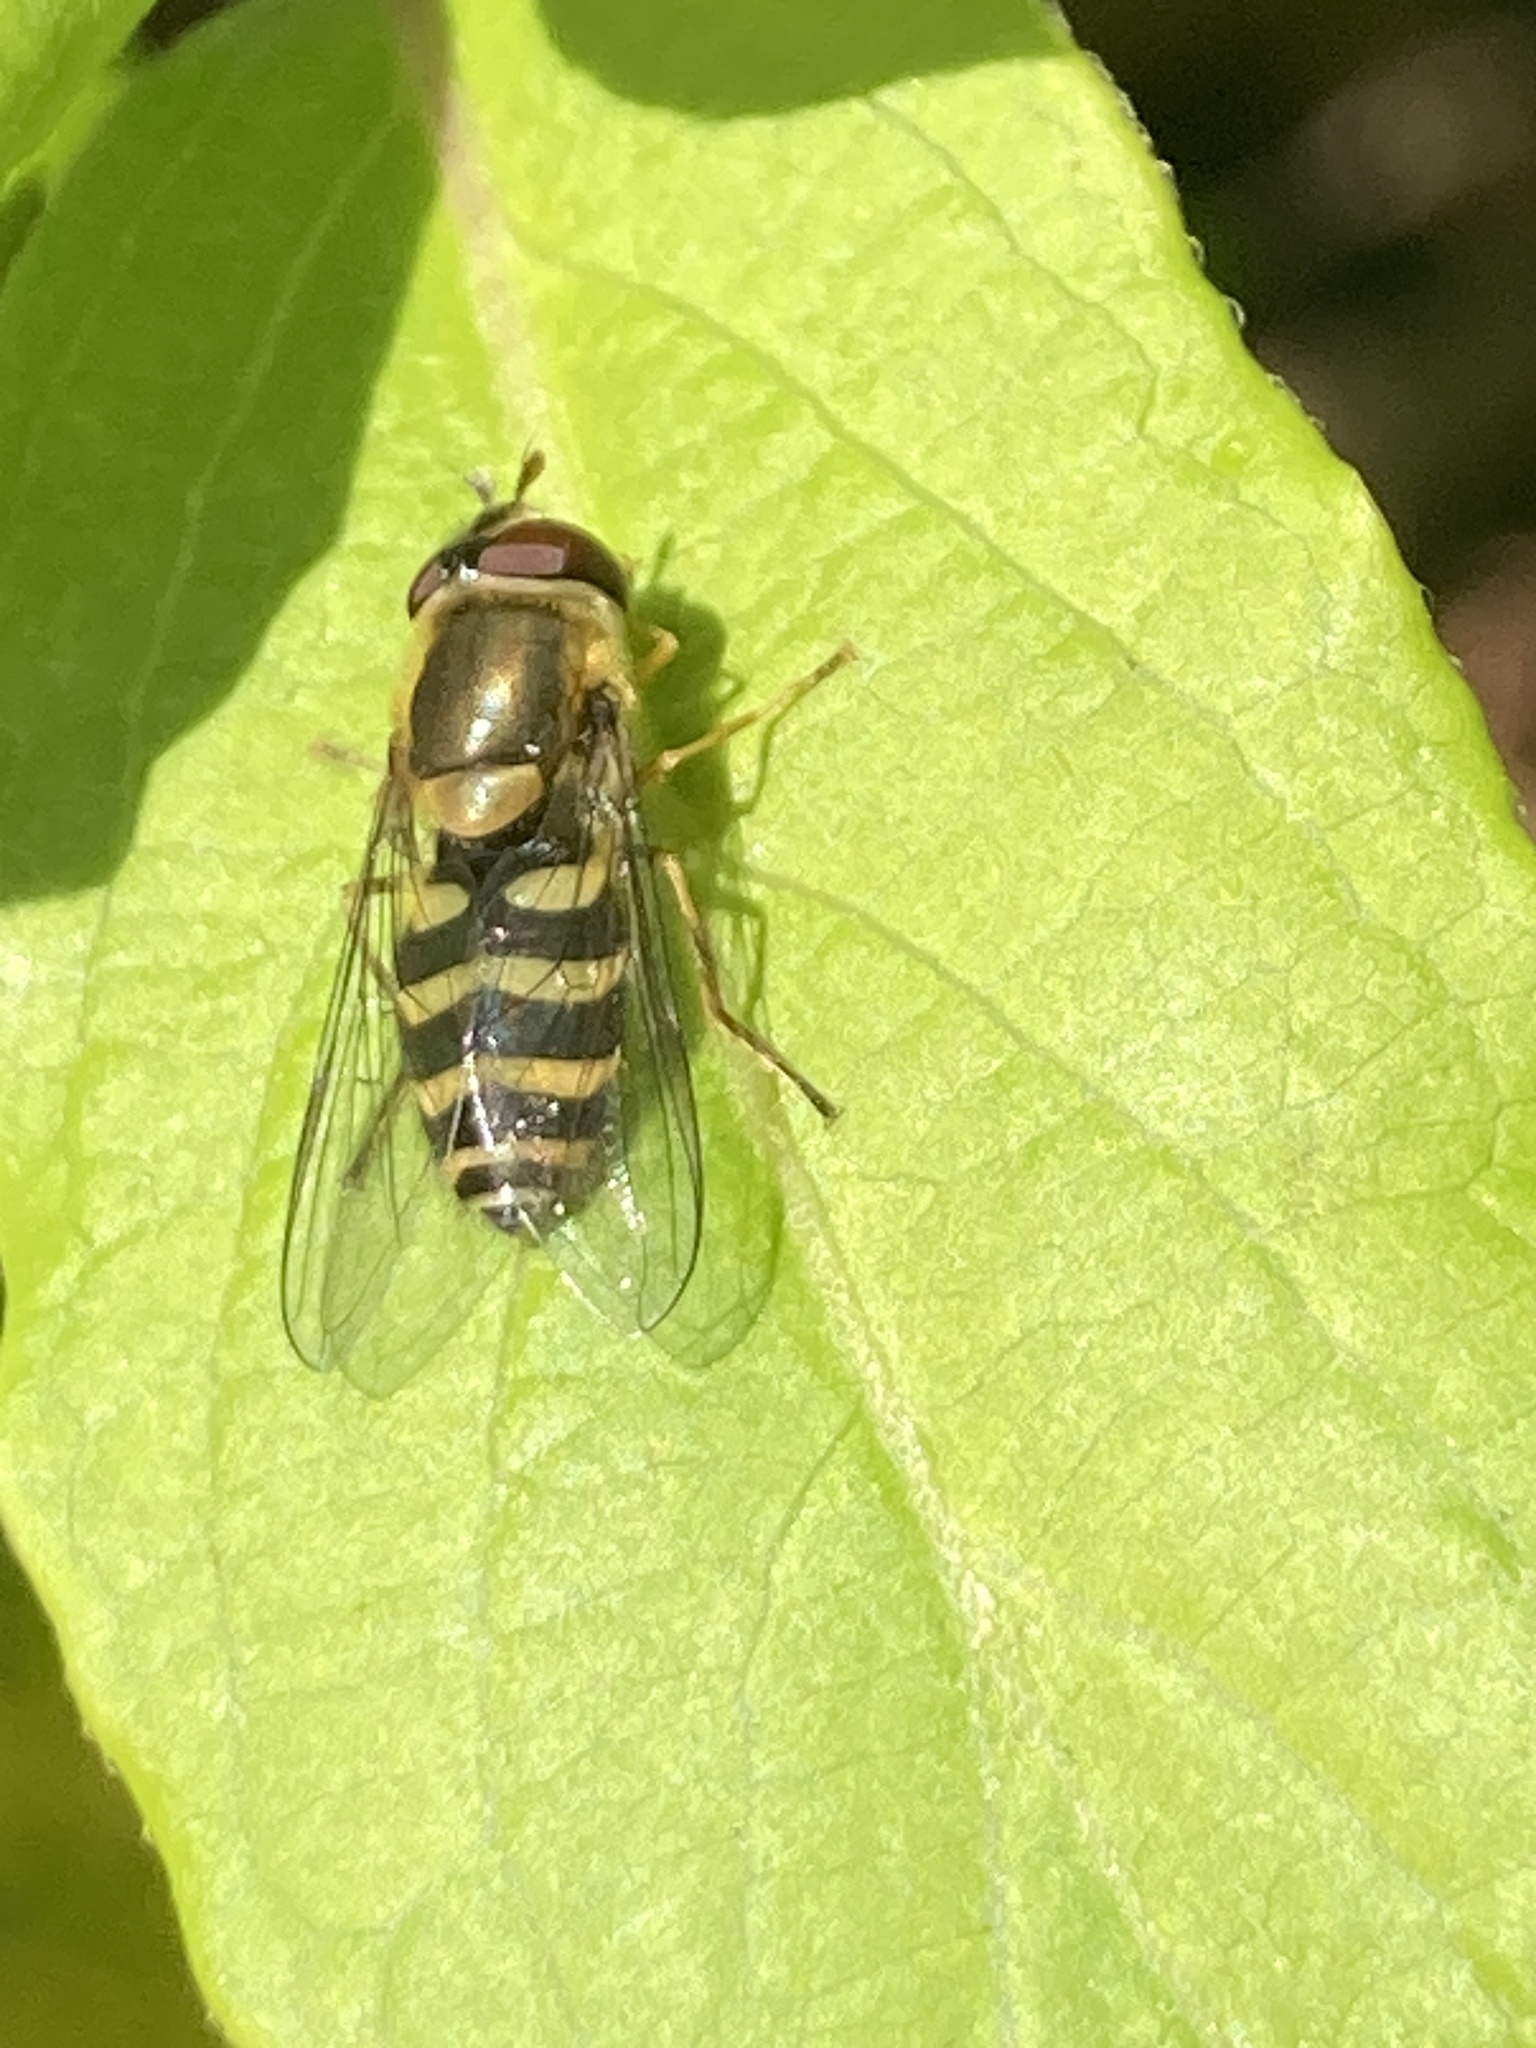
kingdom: Animalia
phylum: Arthropoda
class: Insecta
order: Diptera
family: Syrphidae
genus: Syrphus
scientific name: Syrphus
